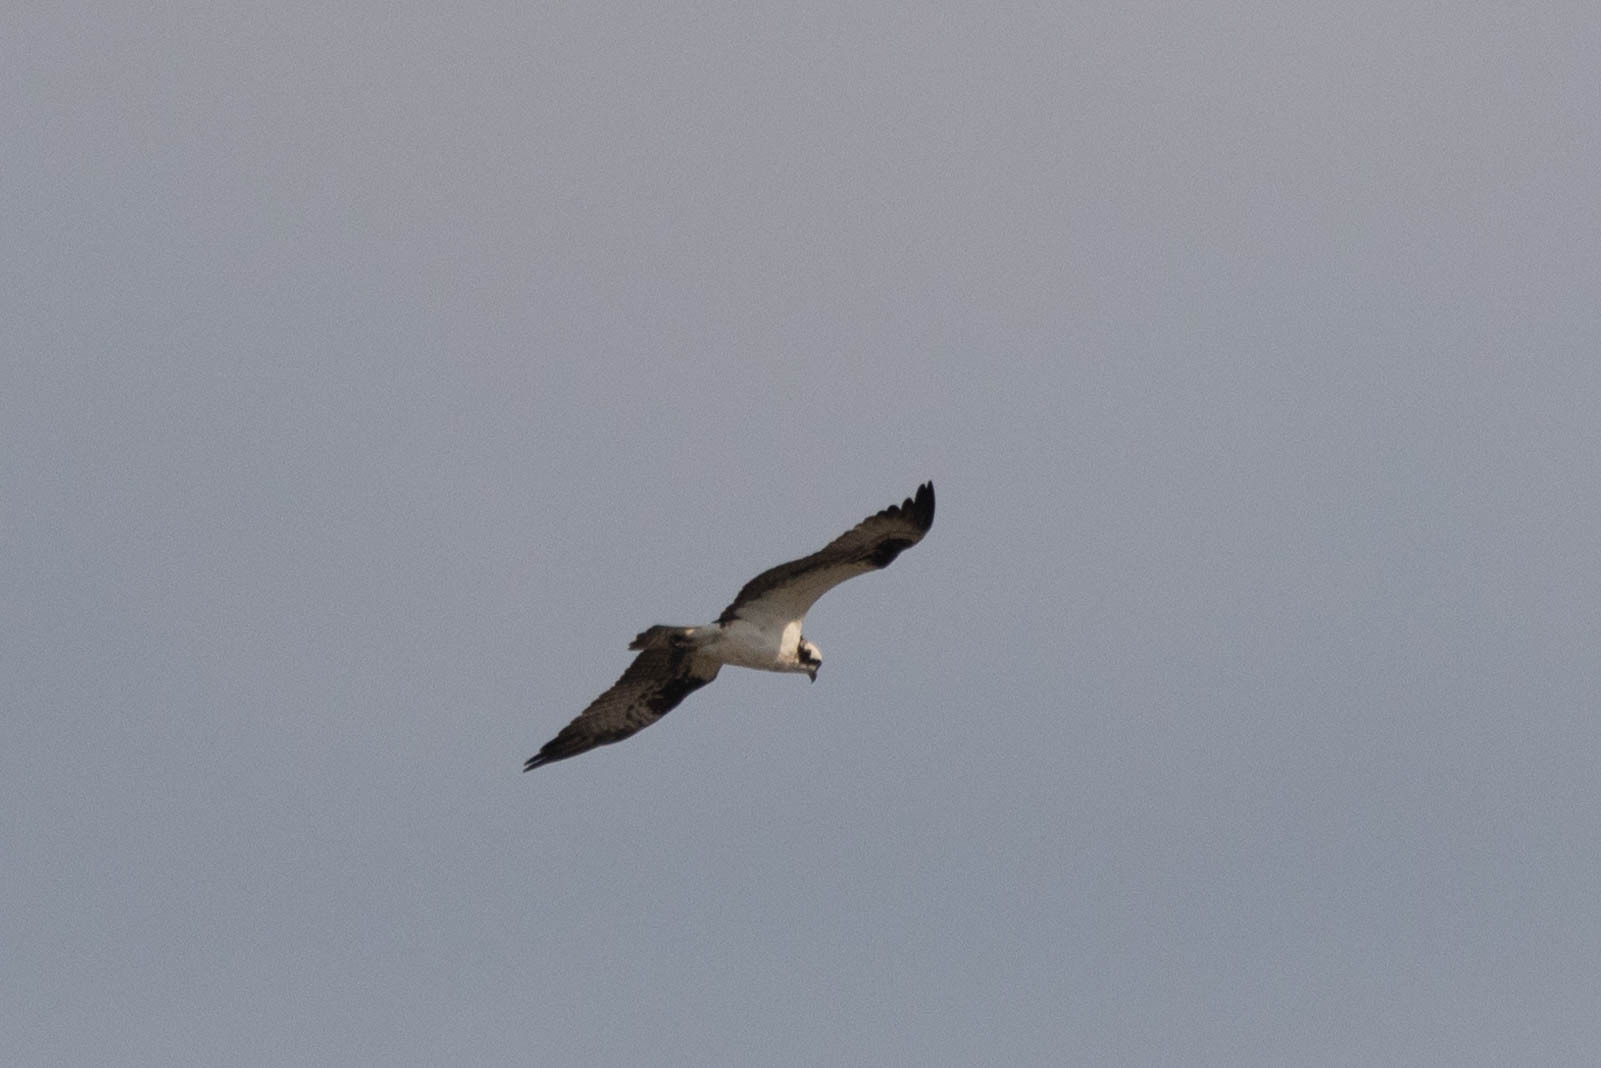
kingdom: Animalia
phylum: Chordata
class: Aves
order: Accipitriformes
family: Pandionidae
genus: Pandion
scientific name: Pandion haliaetus
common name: Osprey
